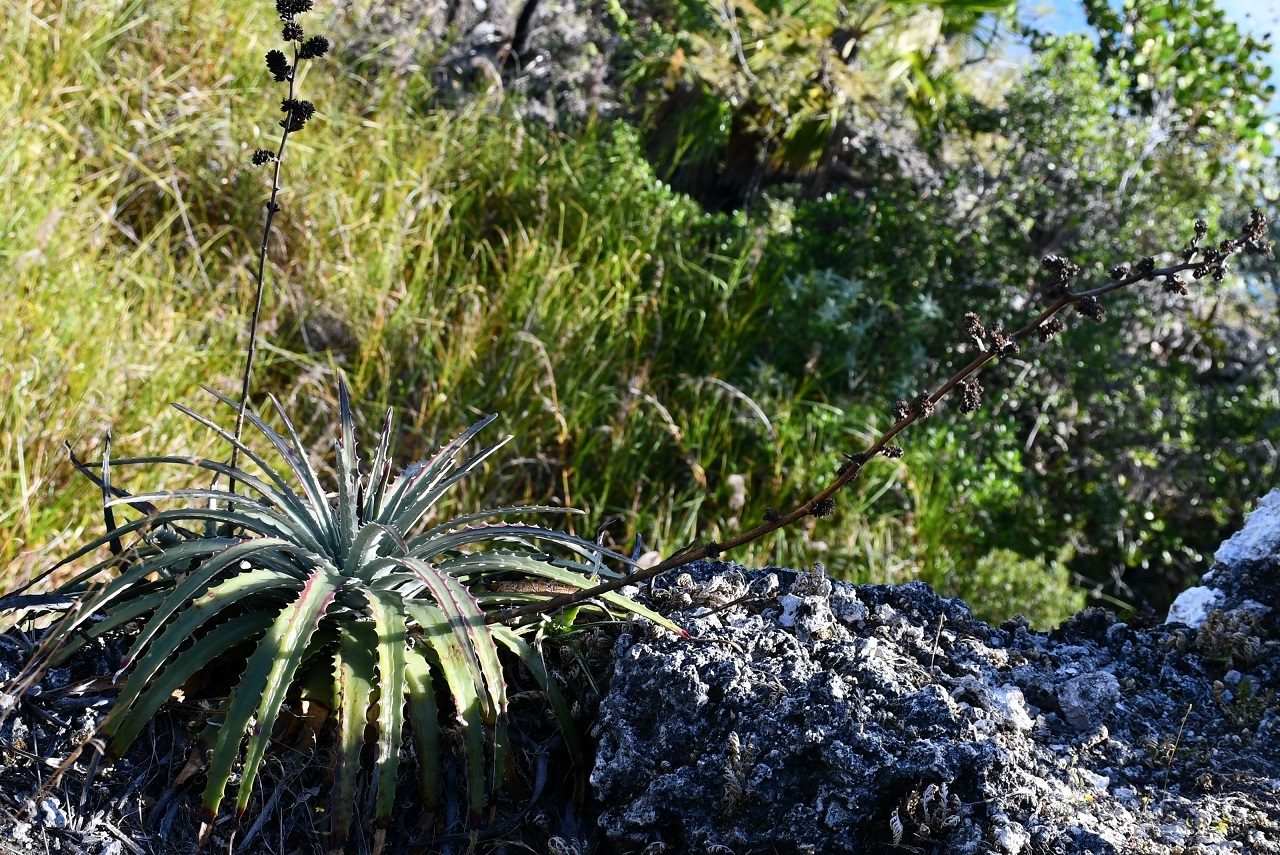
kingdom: Plantae
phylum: Tracheophyta
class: Liliopsida
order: Poales
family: Bromeliaceae
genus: Hechtia
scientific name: Hechtia glomerata
